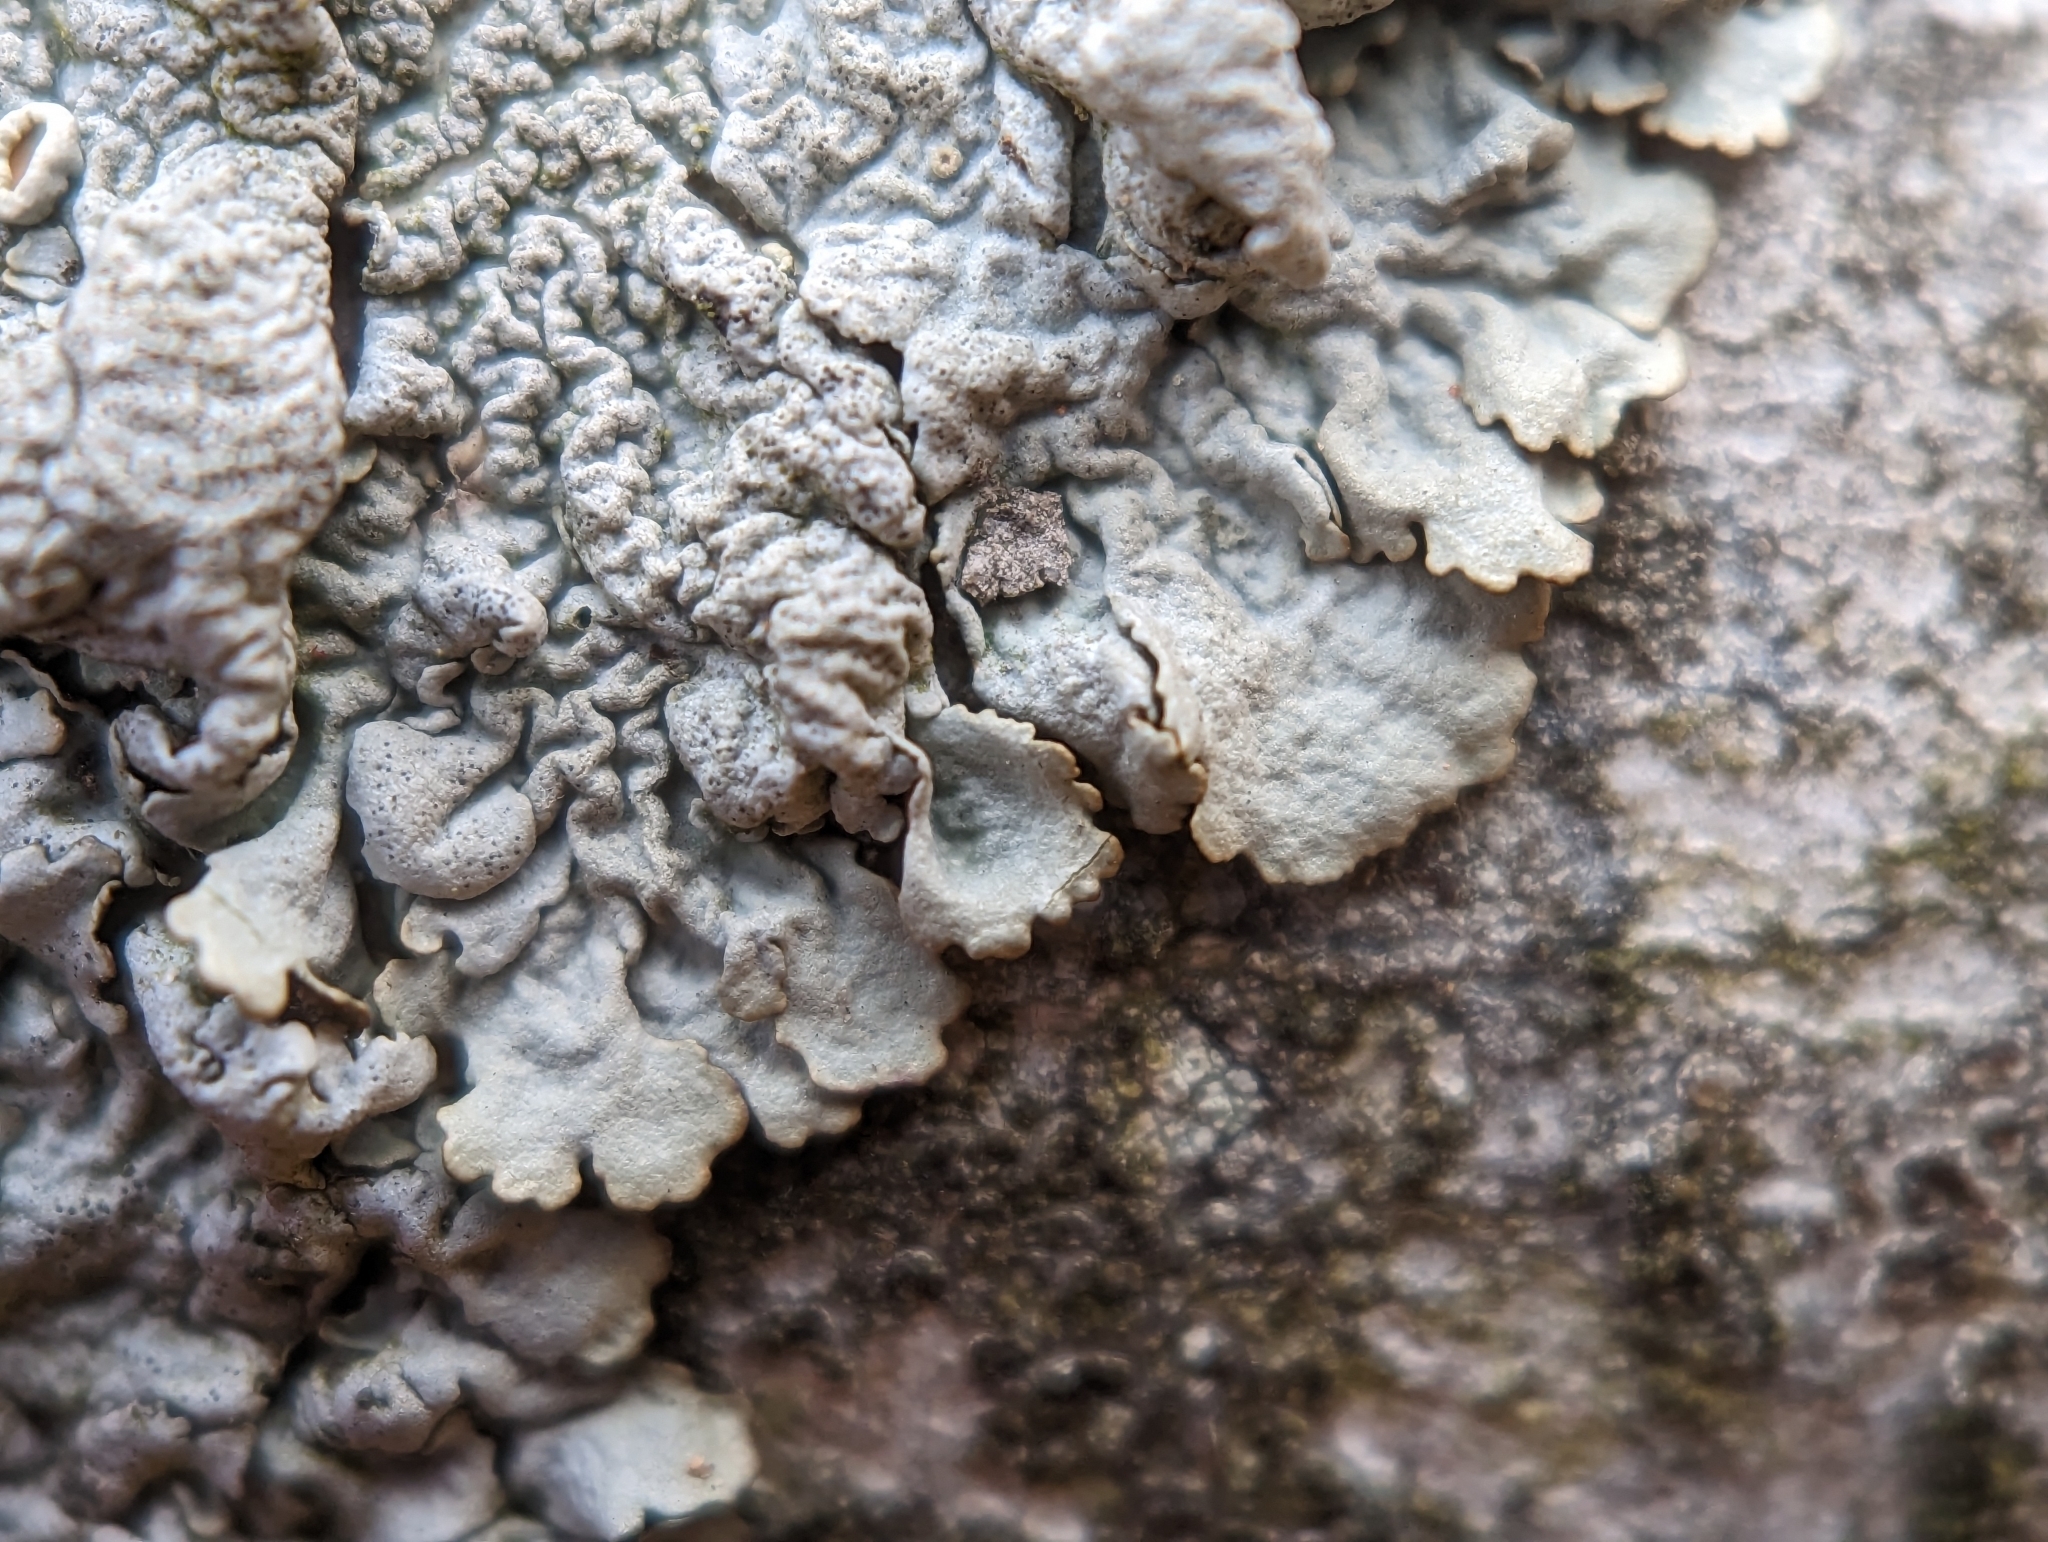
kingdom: Fungi
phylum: Ascomycota
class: Lecanoromycetes
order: Lecanorales
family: Parmeliaceae
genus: Myelochroa
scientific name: Myelochroa galbina
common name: Smooth axil-bristle lichen
